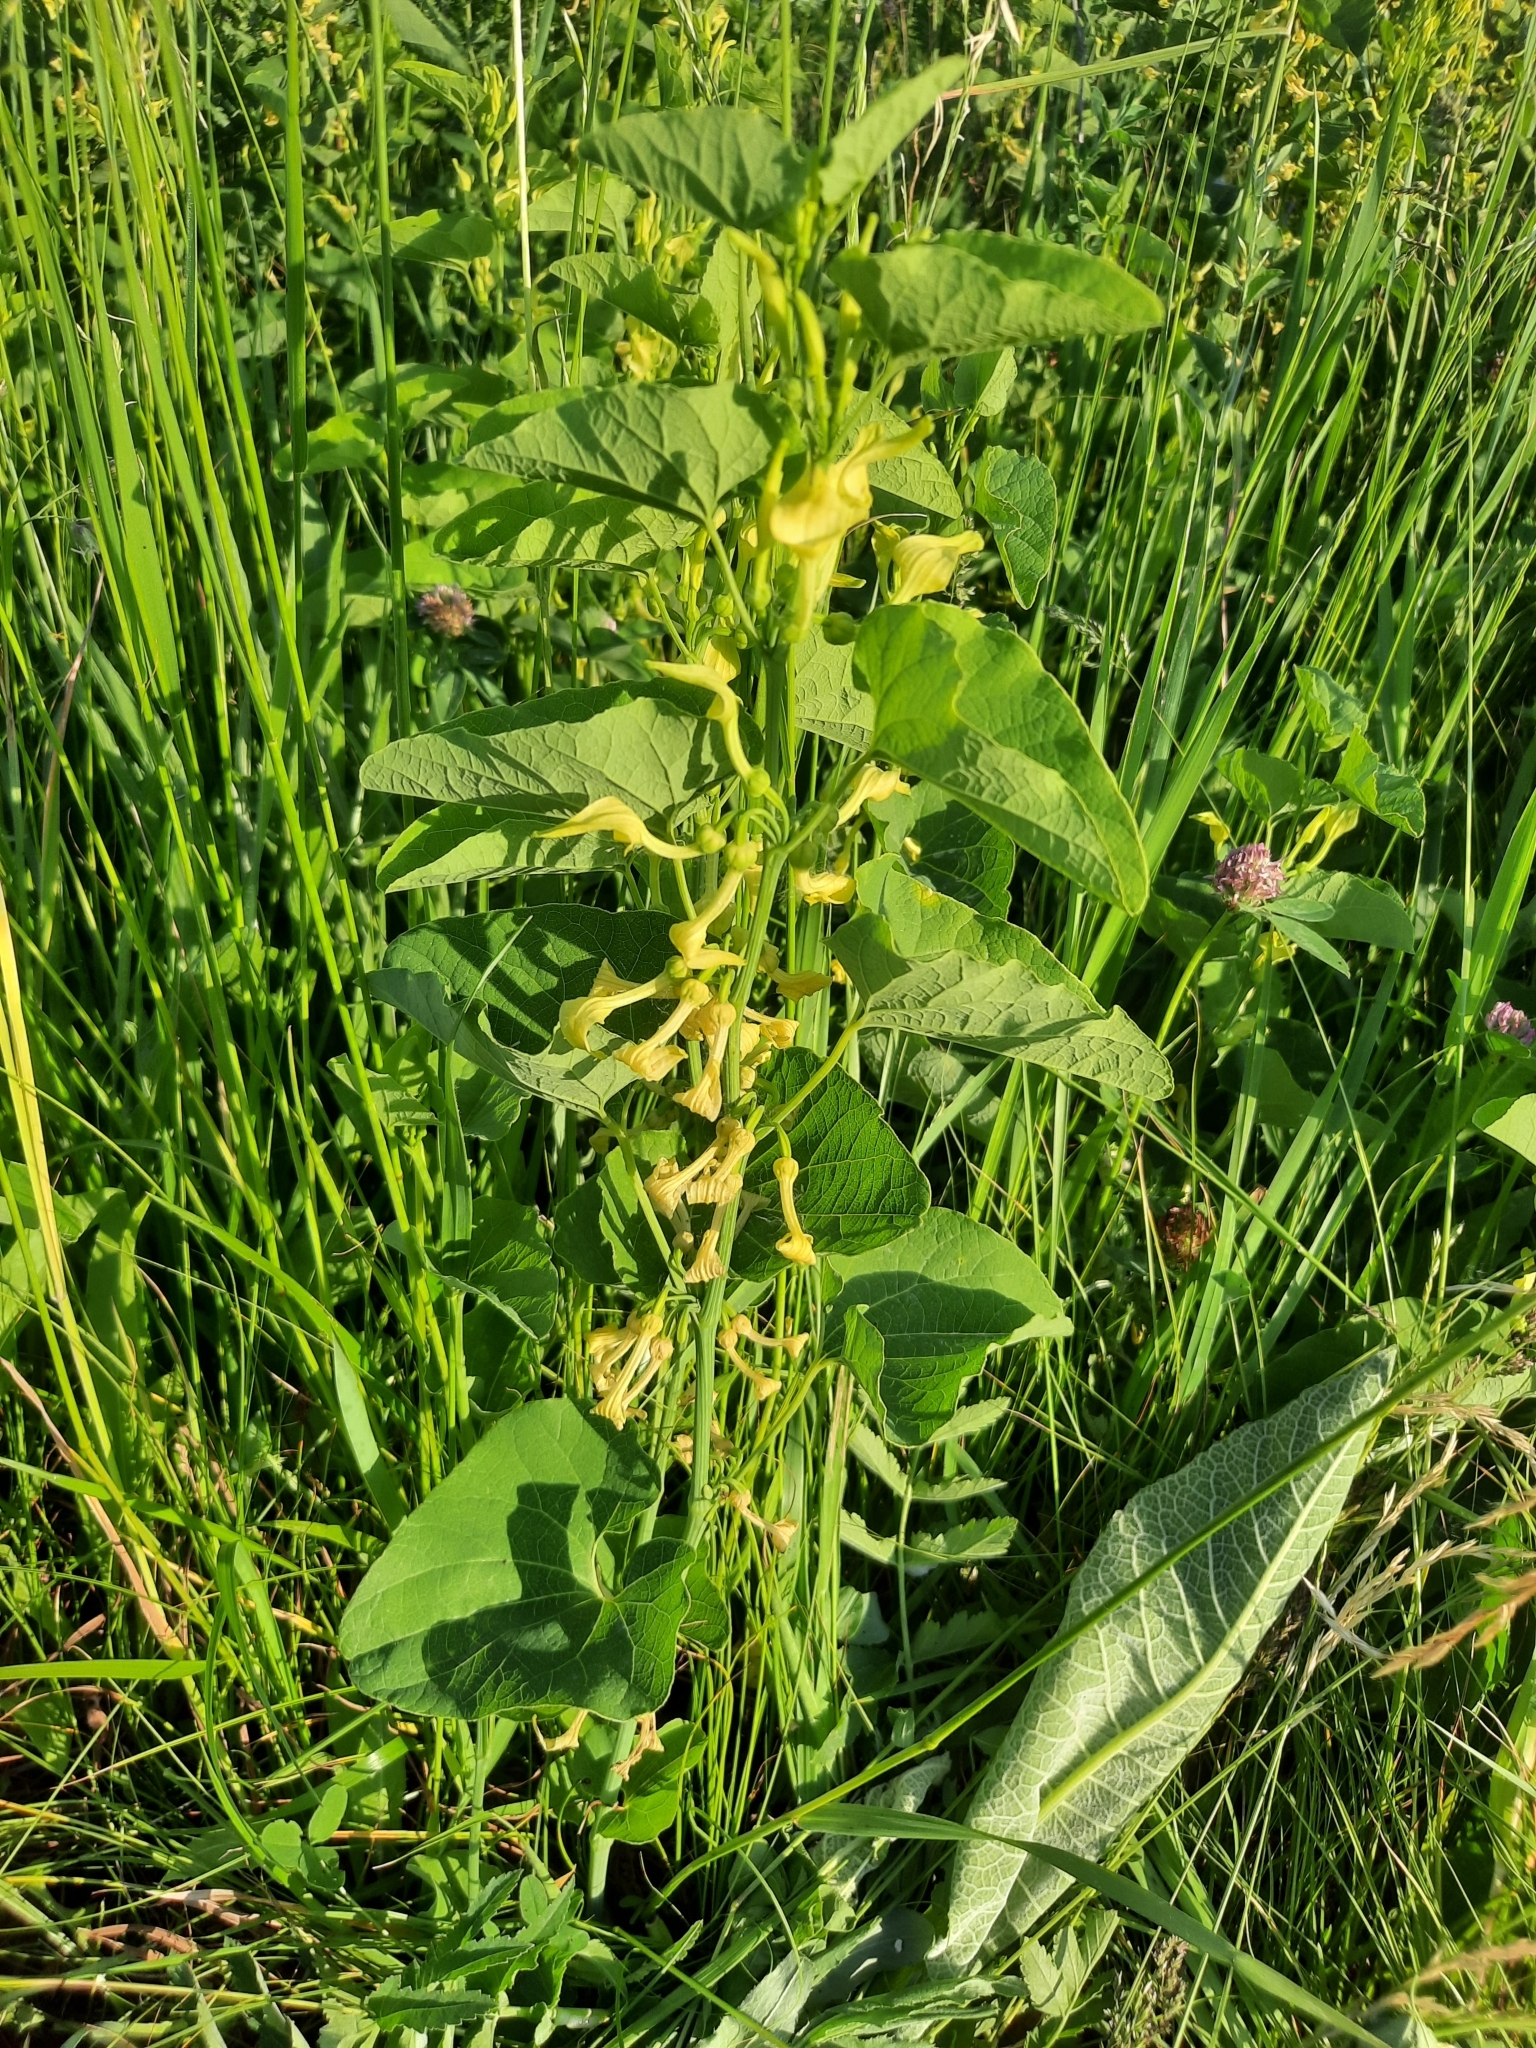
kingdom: Plantae
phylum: Tracheophyta
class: Magnoliopsida
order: Piperales
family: Aristolochiaceae
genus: Aristolochia
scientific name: Aristolochia clematitis
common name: Birthwort
